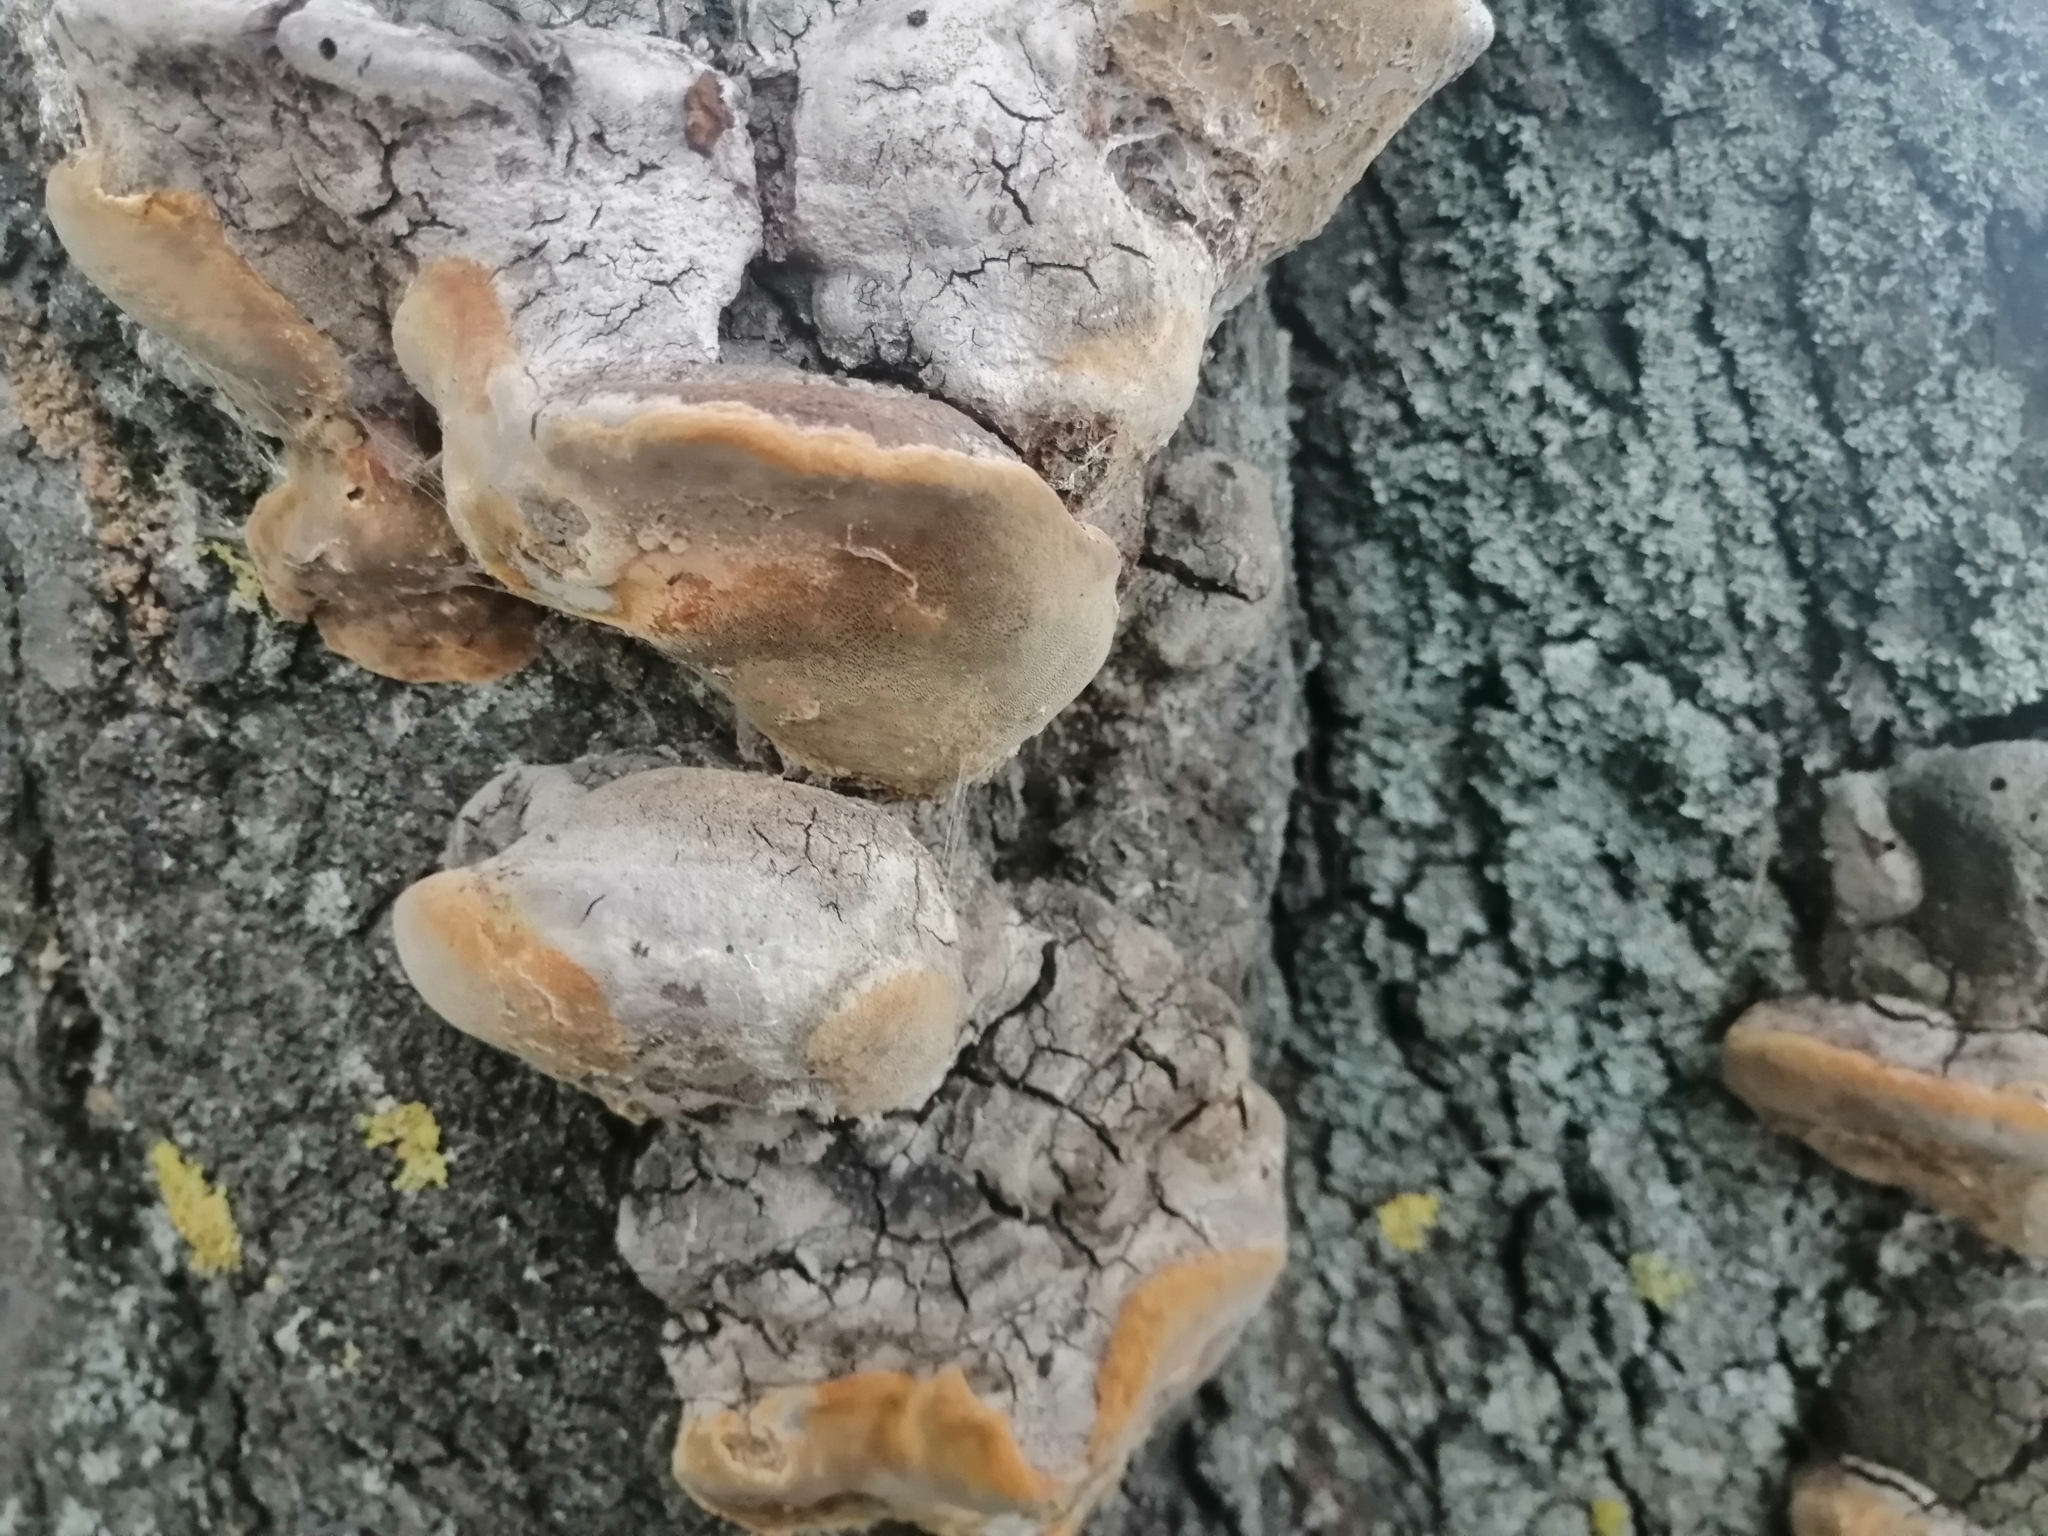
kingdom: Fungi
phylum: Basidiomycota
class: Agaricomycetes
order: Hymenochaetales
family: Hymenochaetaceae
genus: Phellinus
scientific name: Phellinus pomaceus
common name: Cushion bracket
